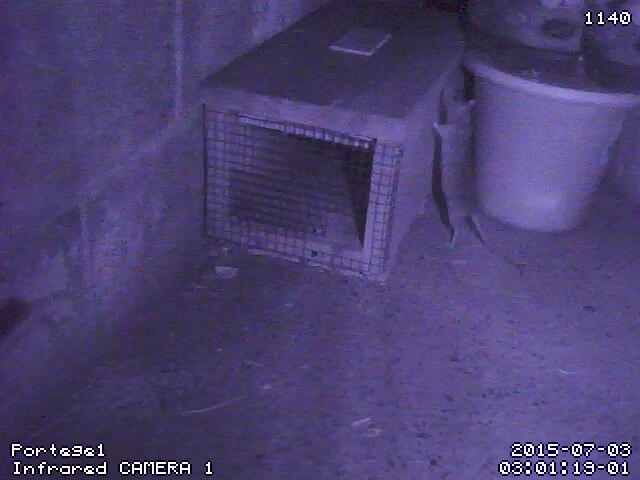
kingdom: Animalia
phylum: Chordata
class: Mammalia
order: Rodentia
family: Muridae
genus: Rattus
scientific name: Rattus norvegicus
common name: Brown rat
